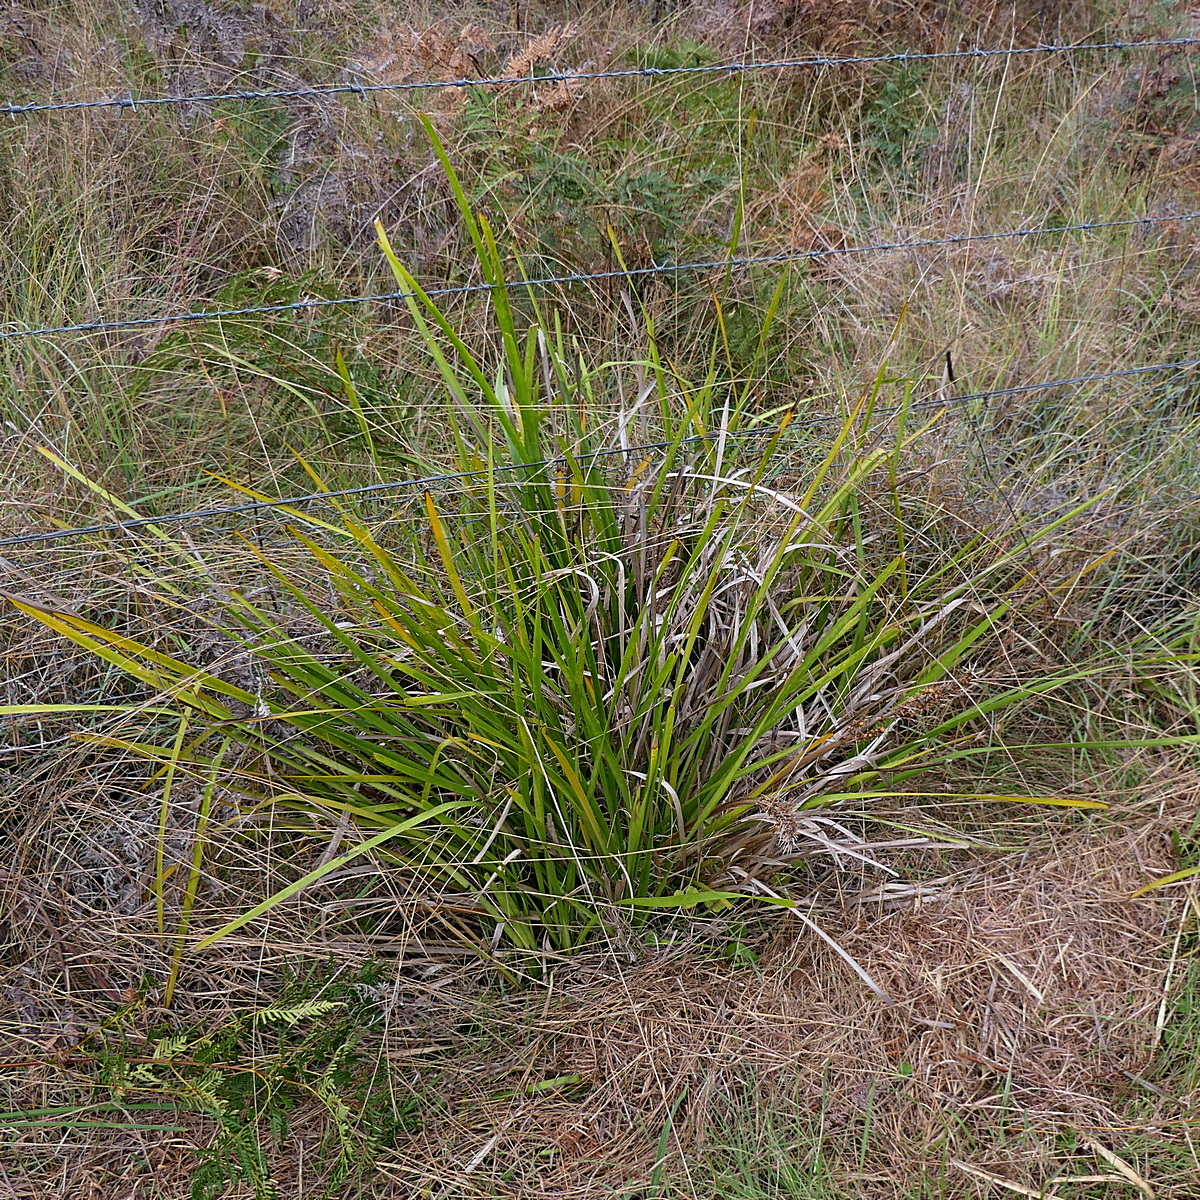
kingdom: Plantae
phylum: Tracheophyta
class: Liliopsida
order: Asparagales
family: Asparagaceae
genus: Lomandra
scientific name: Lomandra longifolia
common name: Longleaf mat-rush
